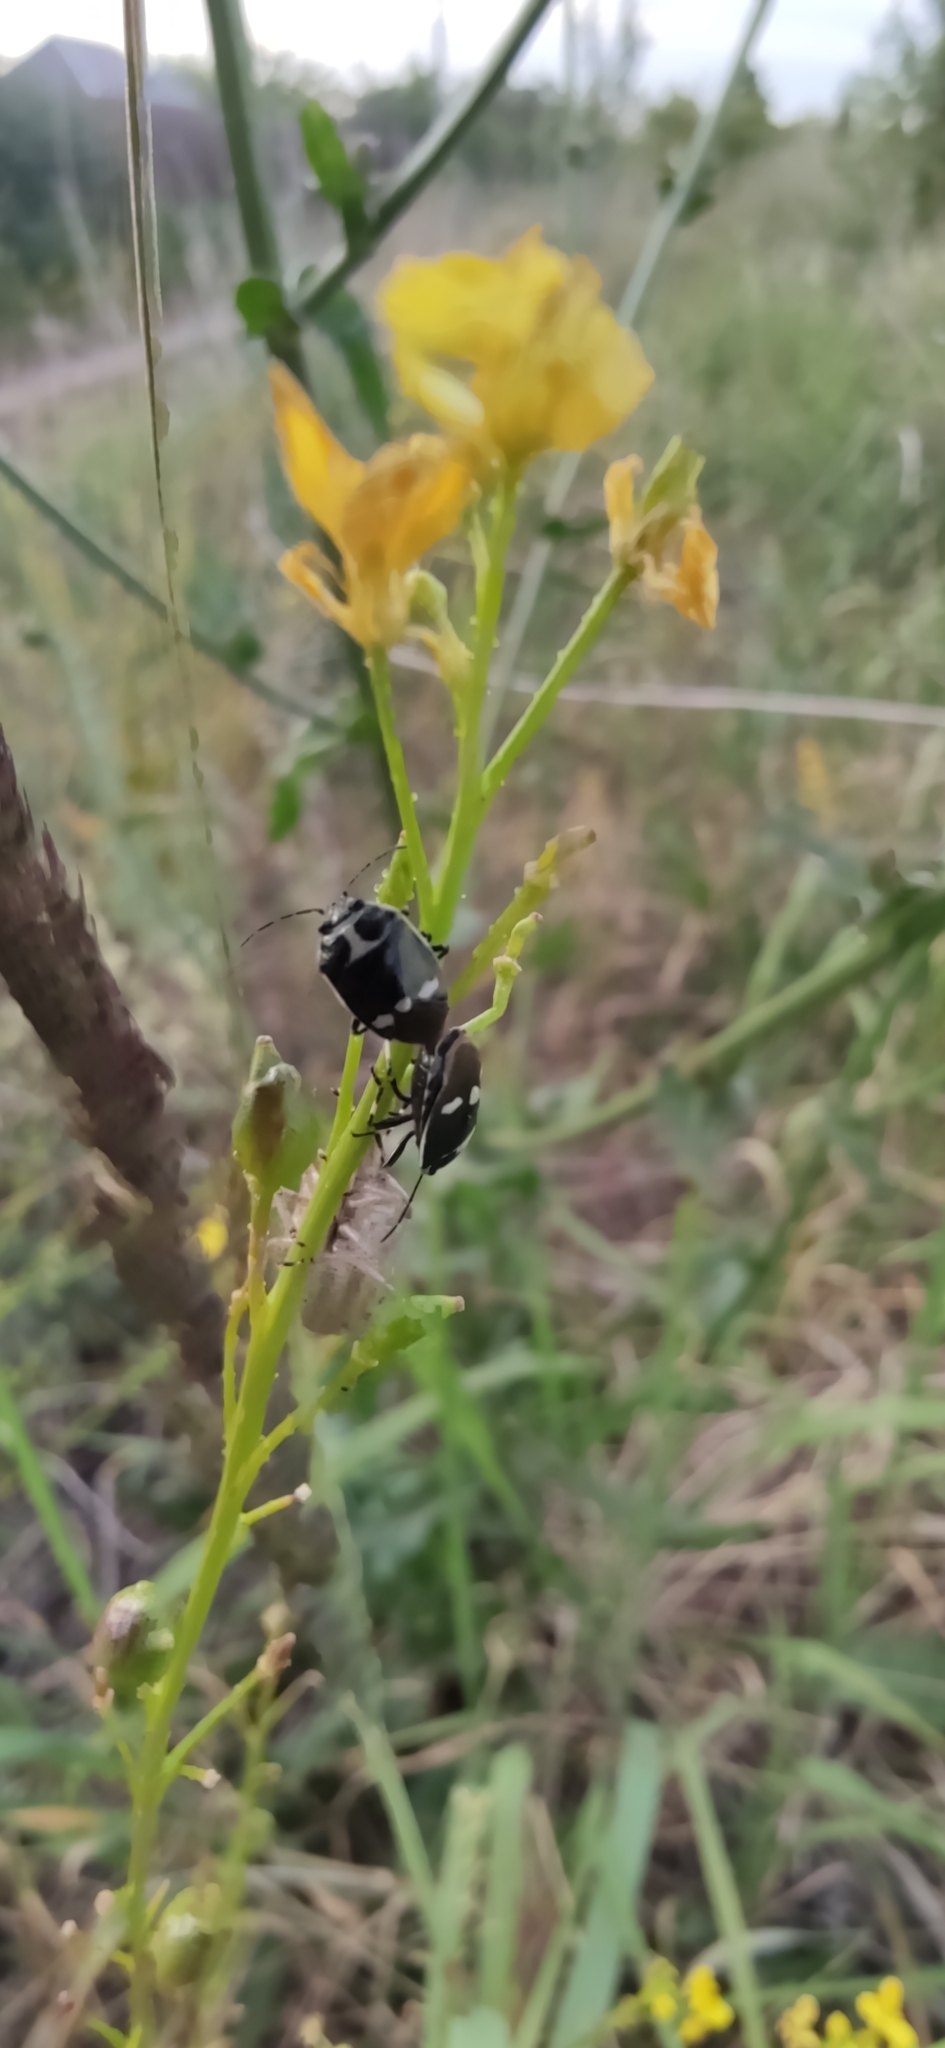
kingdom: Animalia
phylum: Arthropoda
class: Insecta
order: Hemiptera
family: Pentatomidae
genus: Eurydema
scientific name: Eurydema oleracea
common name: Cabbage bug
